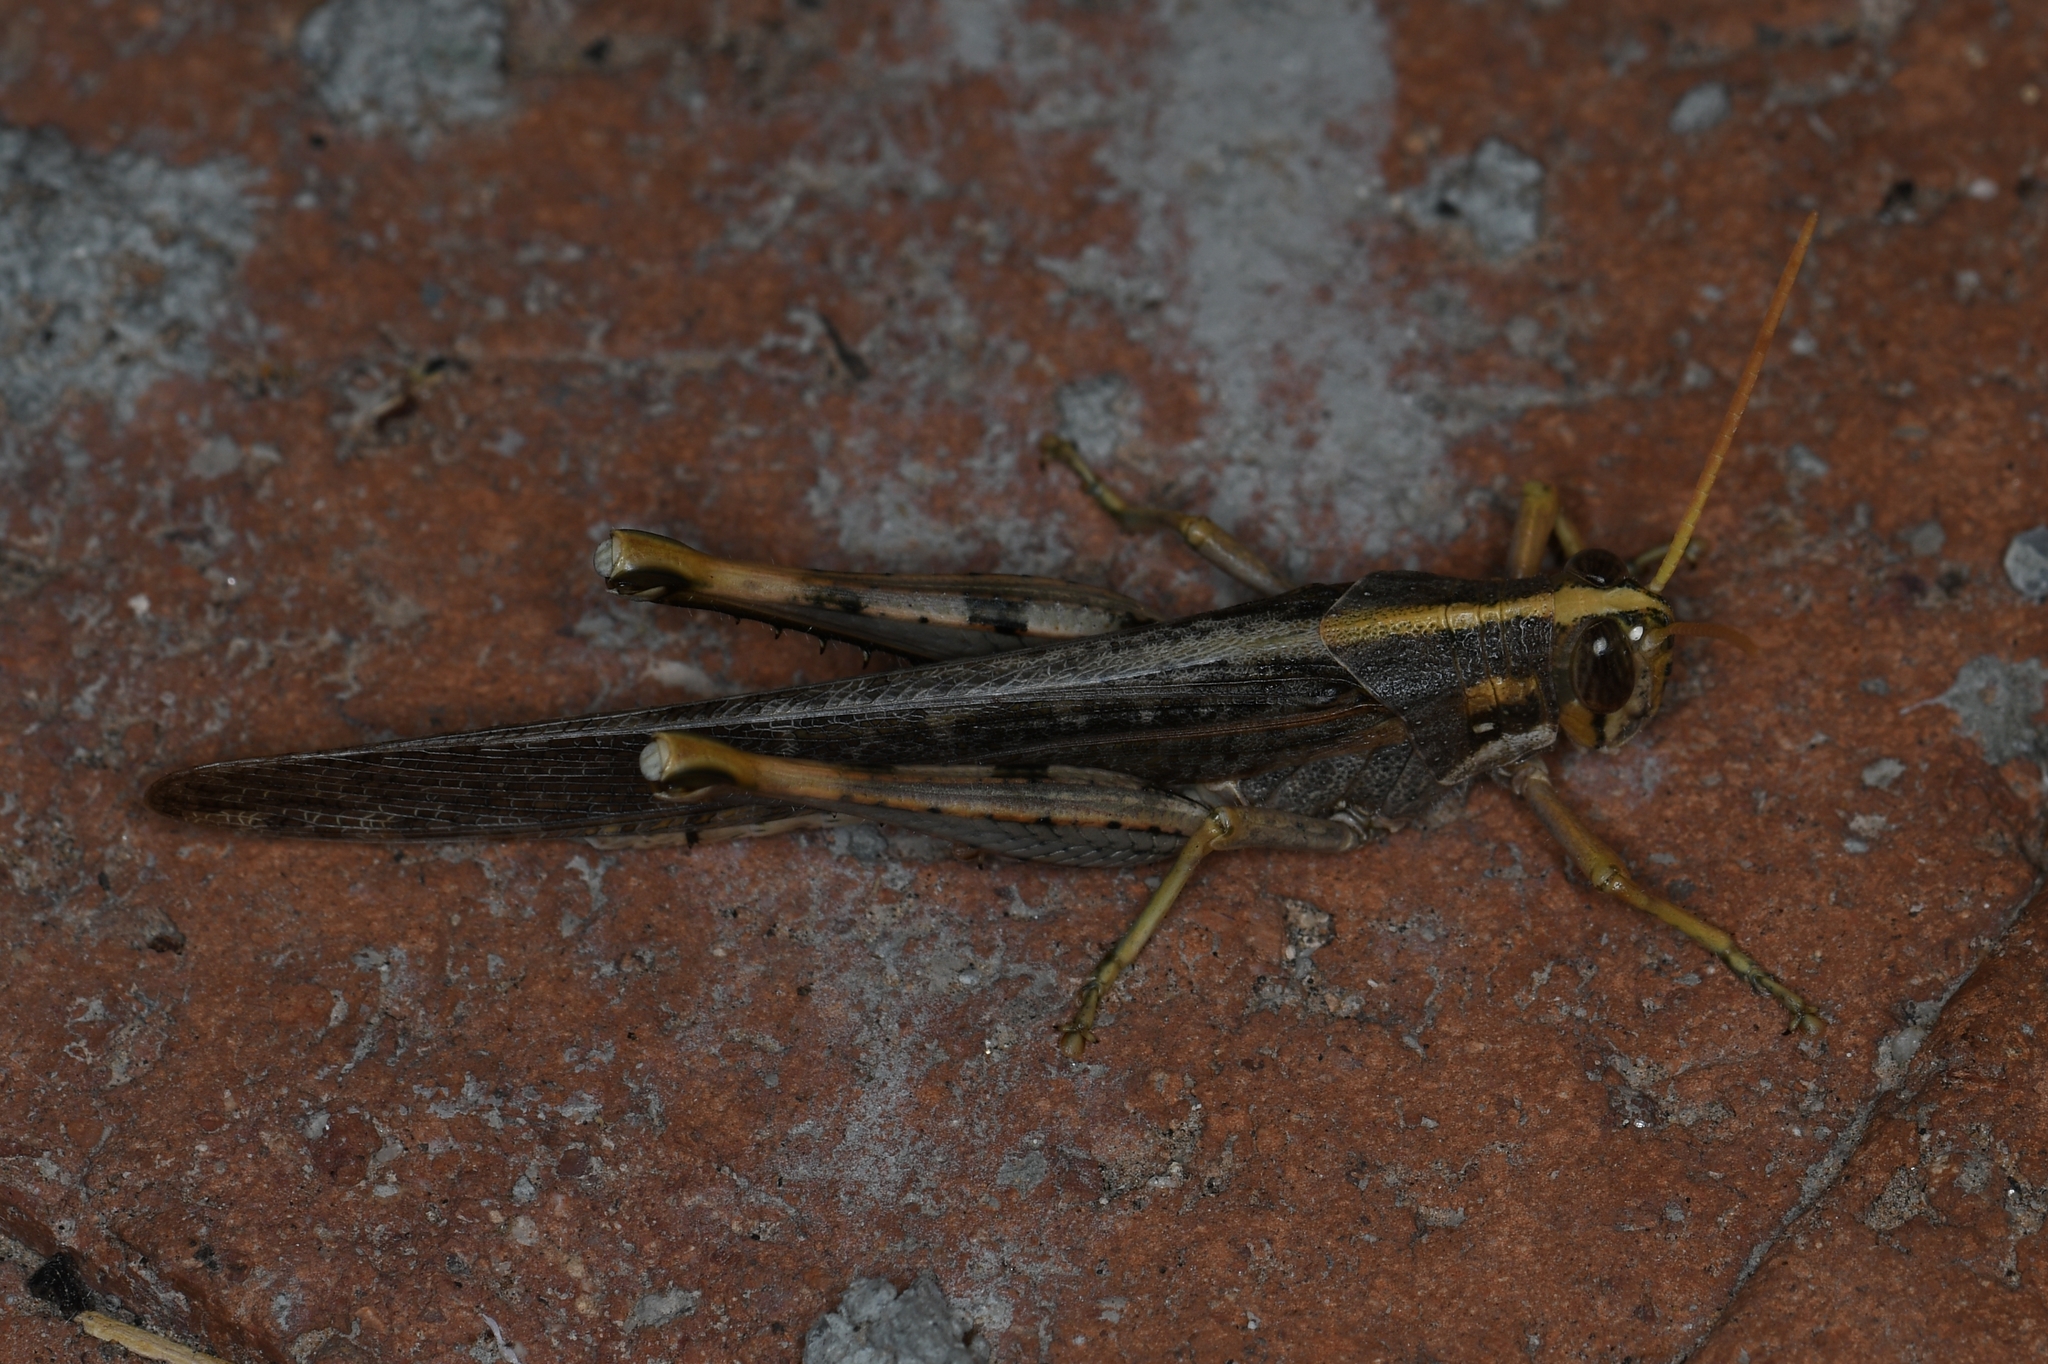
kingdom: Animalia
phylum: Arthropoda
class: Insecta
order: Orthoptera
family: Acrididae
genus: Schistocerca
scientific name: Schistocerca nitens
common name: Vagrant grasshopper
